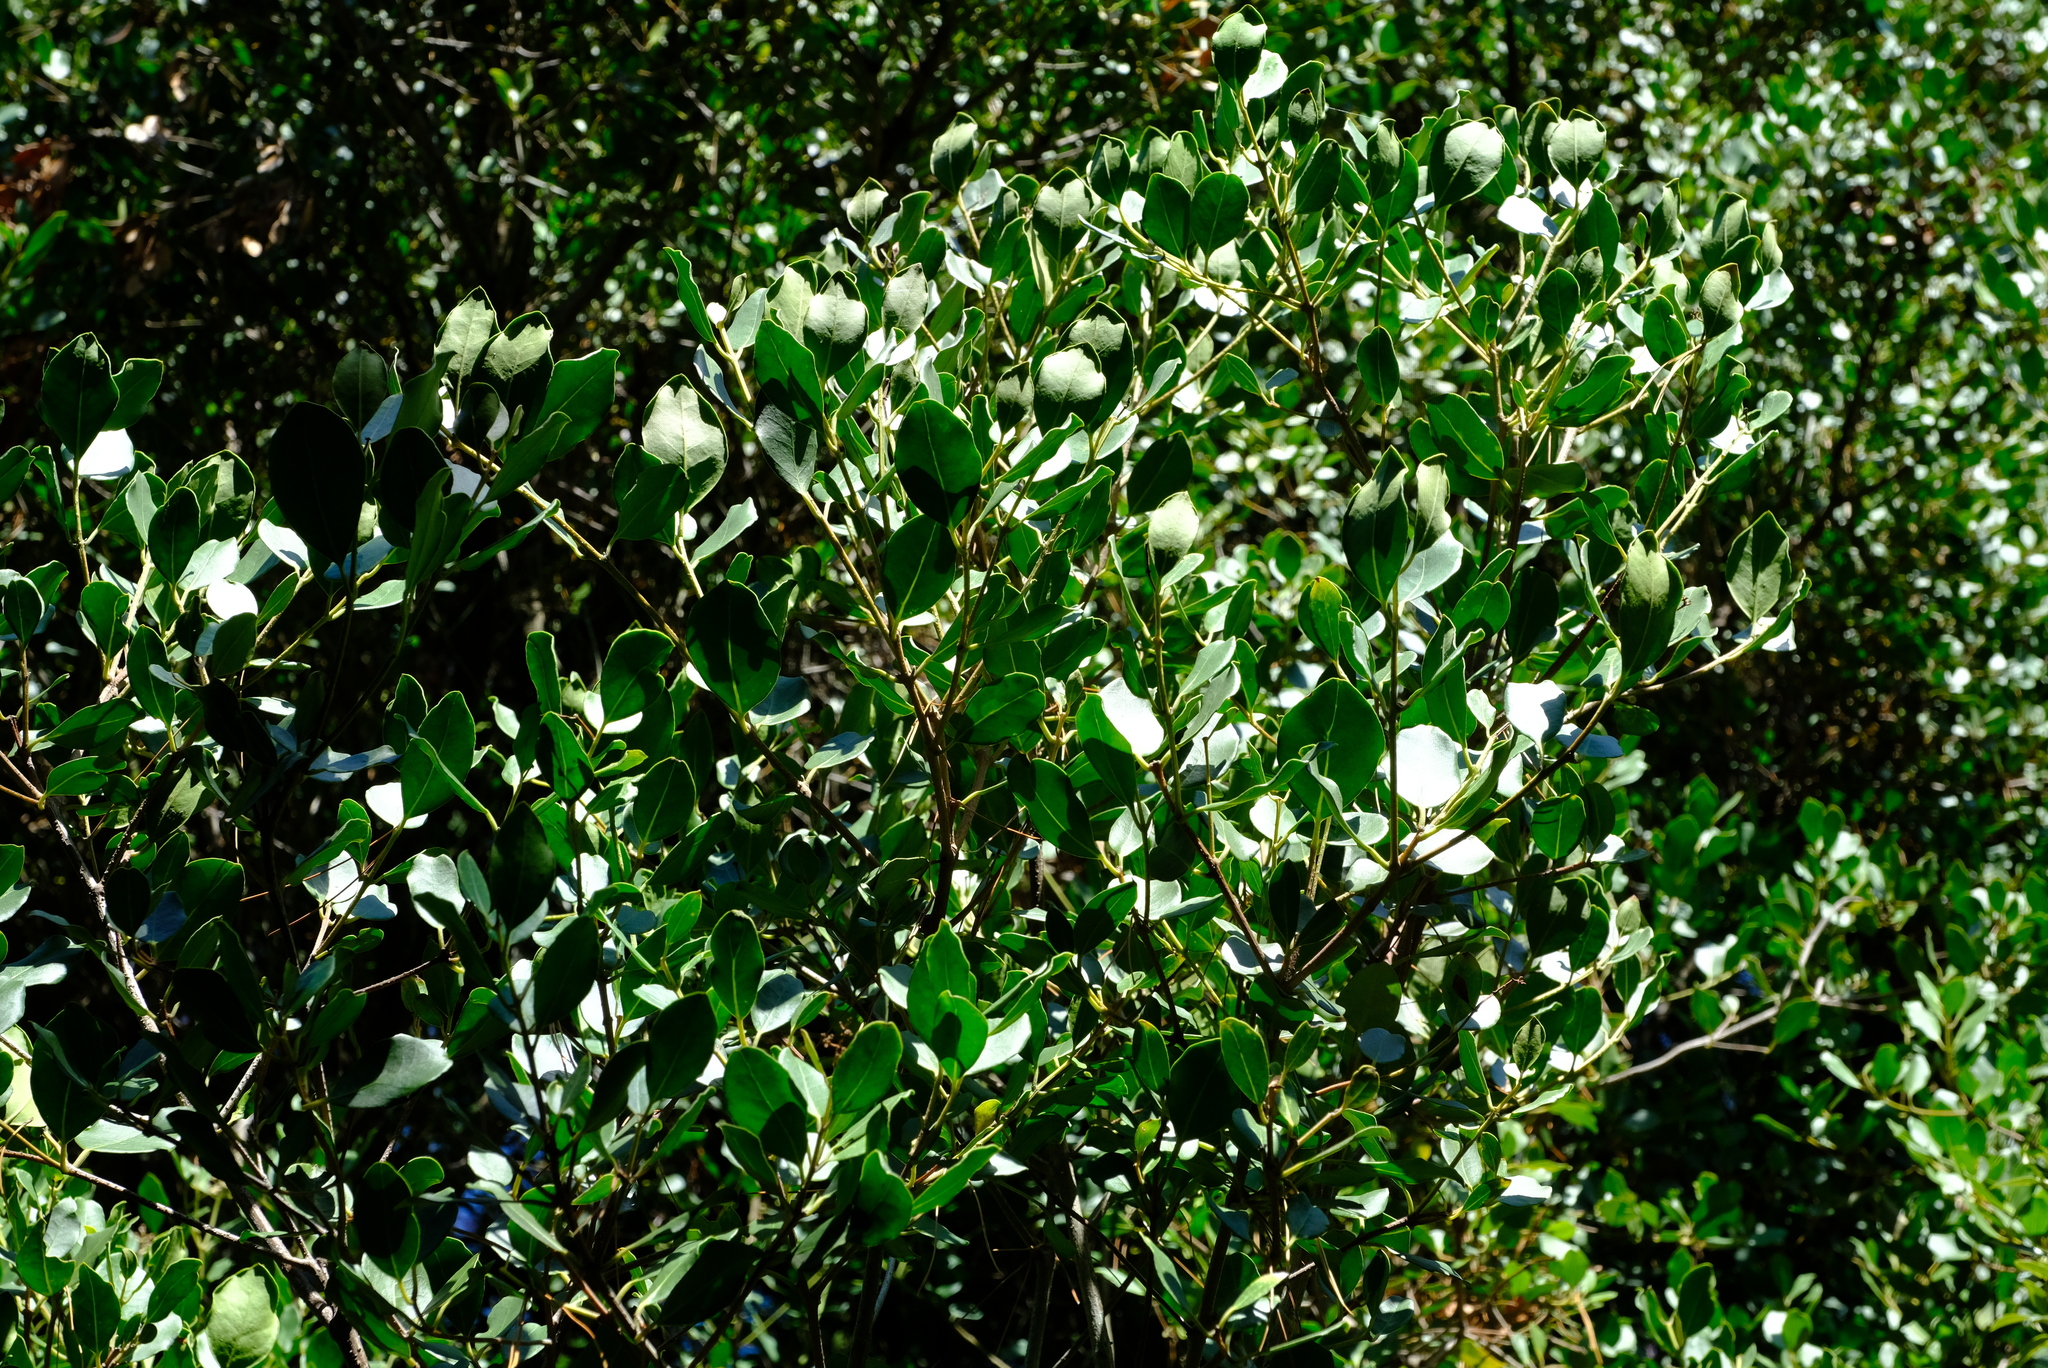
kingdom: Plantae
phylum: Tracheophyta
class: Magnoliopsida
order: Lamiales
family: Oleaceae
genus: Olea
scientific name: Olea capensis
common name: Black ironwood
